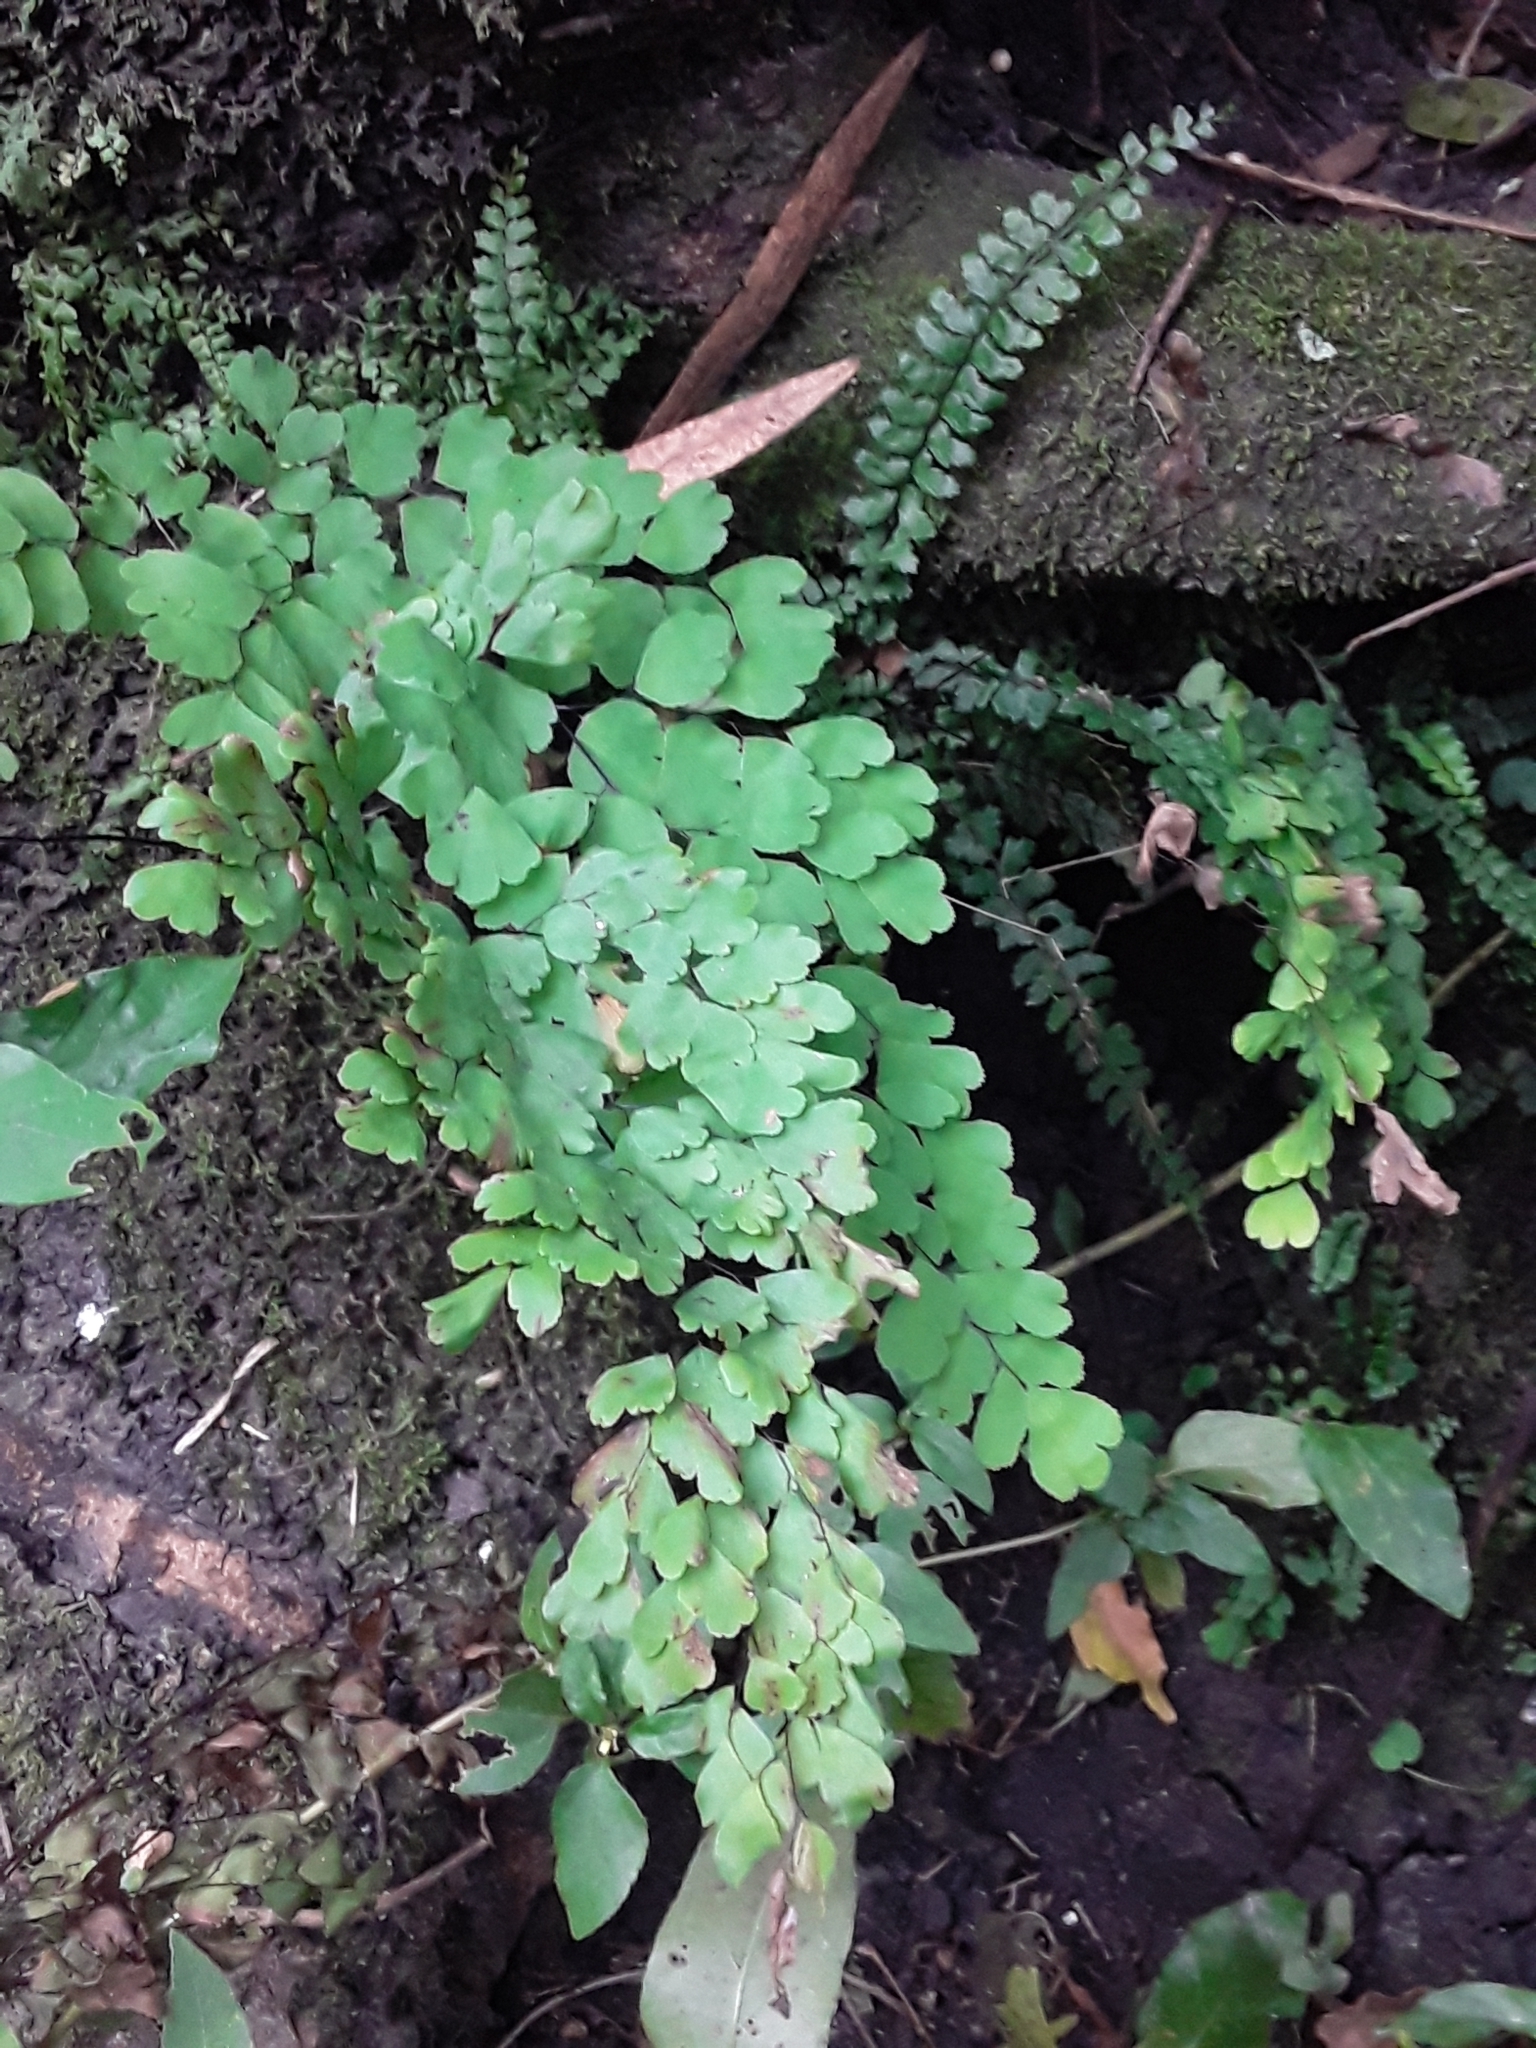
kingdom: Plantae
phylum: Tracheophyta
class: Polypodiopsida
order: Polypodiales
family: Pteridaceae
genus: Adiantum
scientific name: Adiantum raddianum
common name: Delta maidenhair fern
